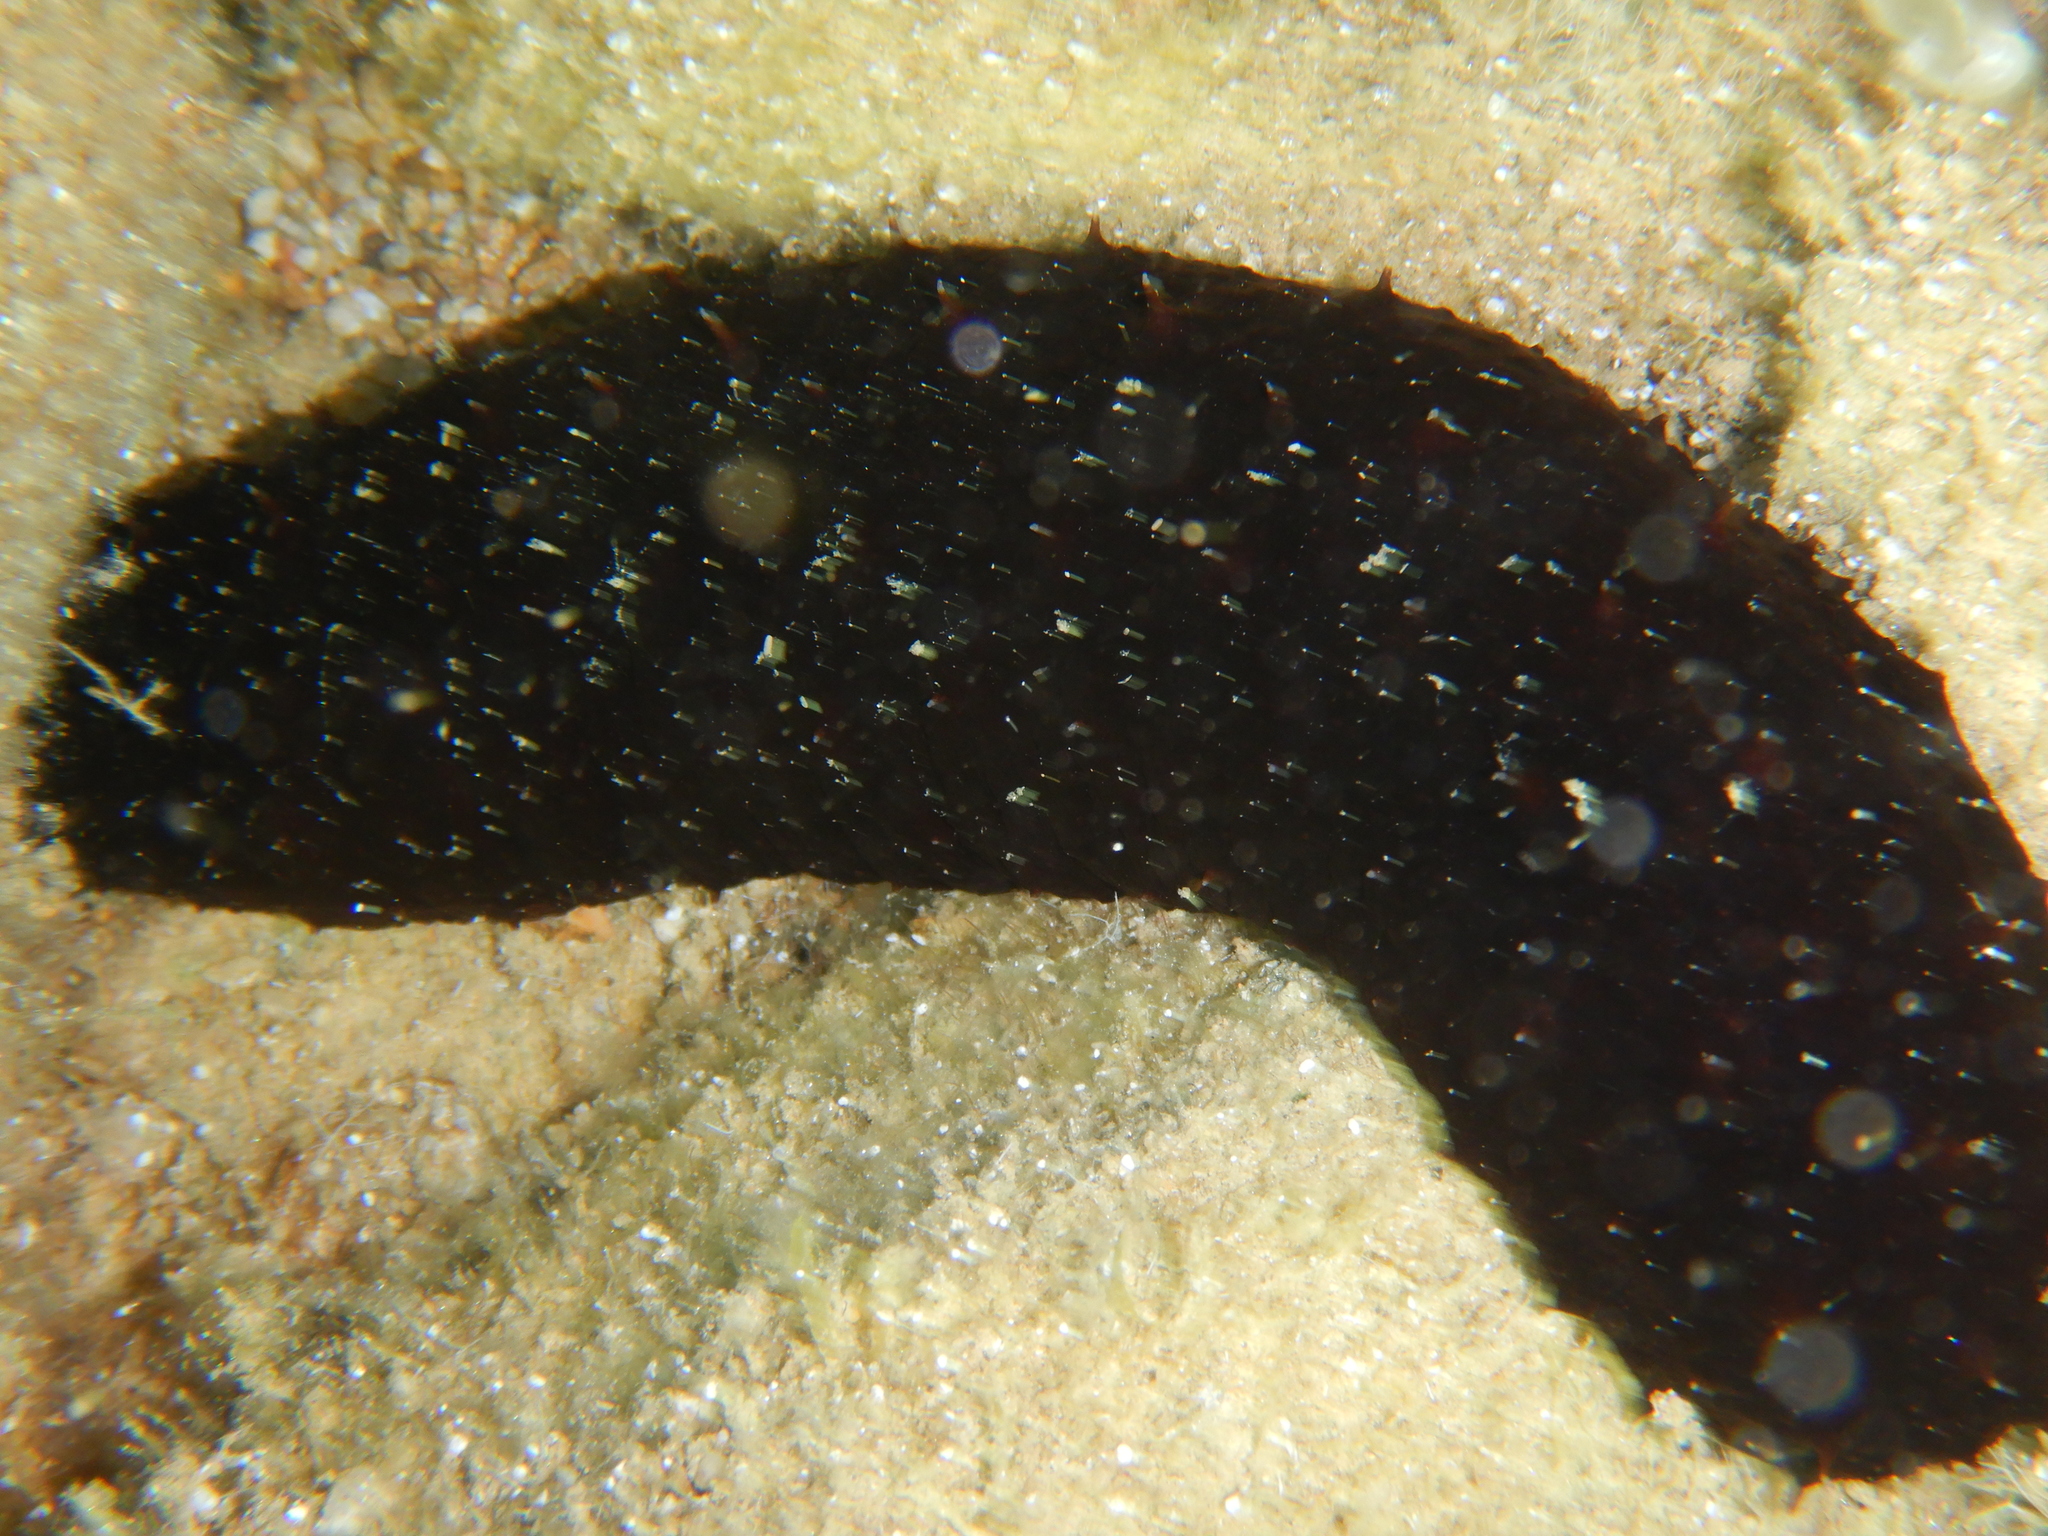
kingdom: Animalia
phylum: Echinodermata
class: Holothuroidea
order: Holothuriida
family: Holothuriidae
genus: Holothuria
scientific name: Holothuria poli
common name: White spot cucumber
